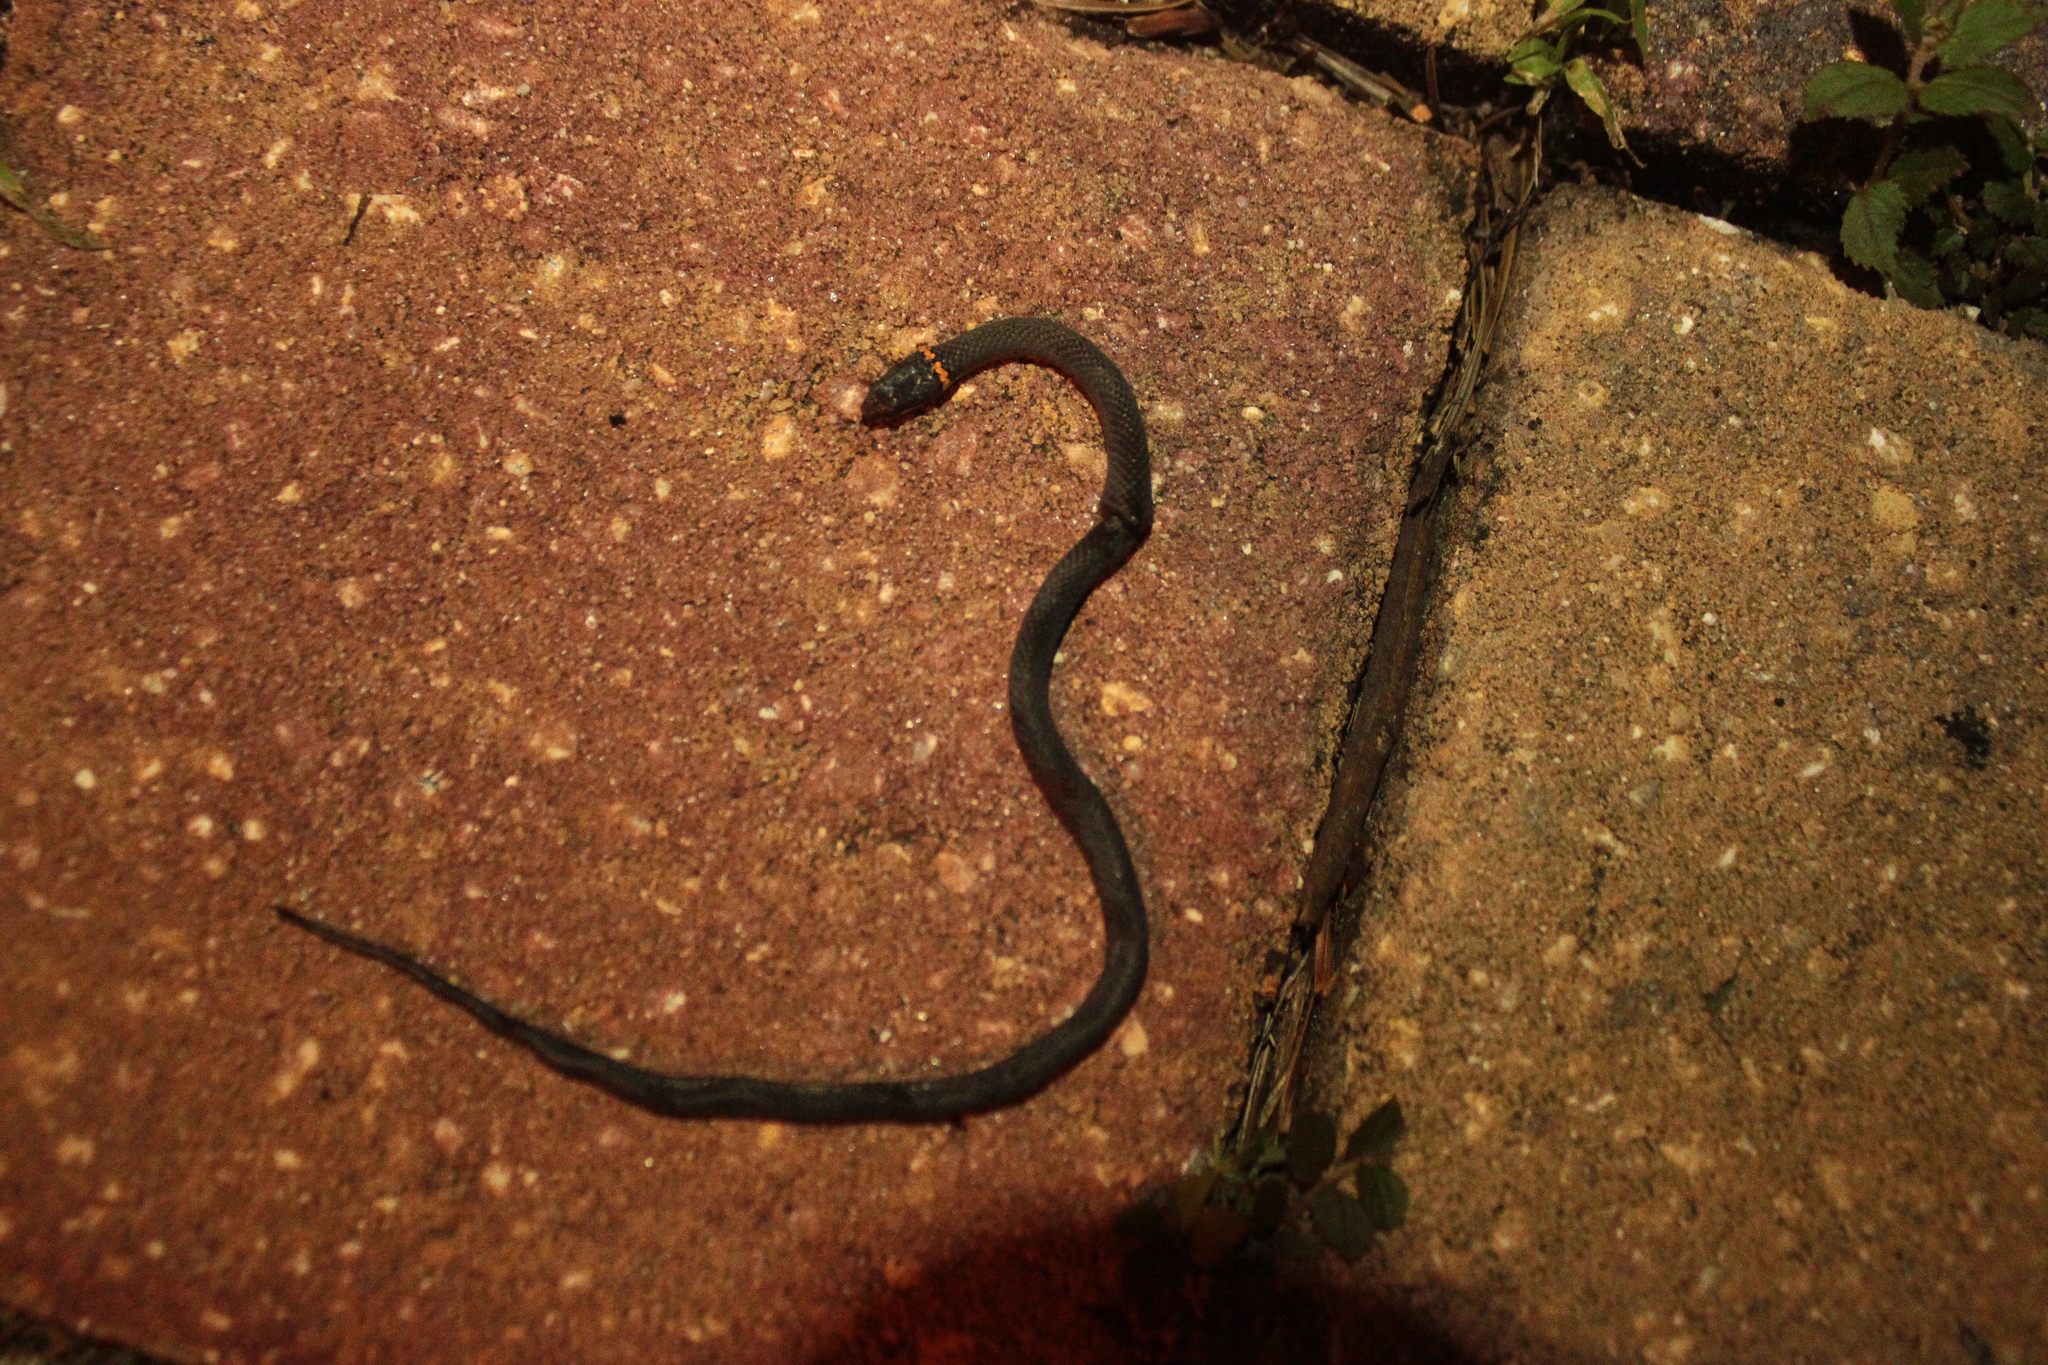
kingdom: Animalia
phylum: Chordata
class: Squamata
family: Colubridae
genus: Diadophis
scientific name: Diadophis punctatus
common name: Ringneck snake
